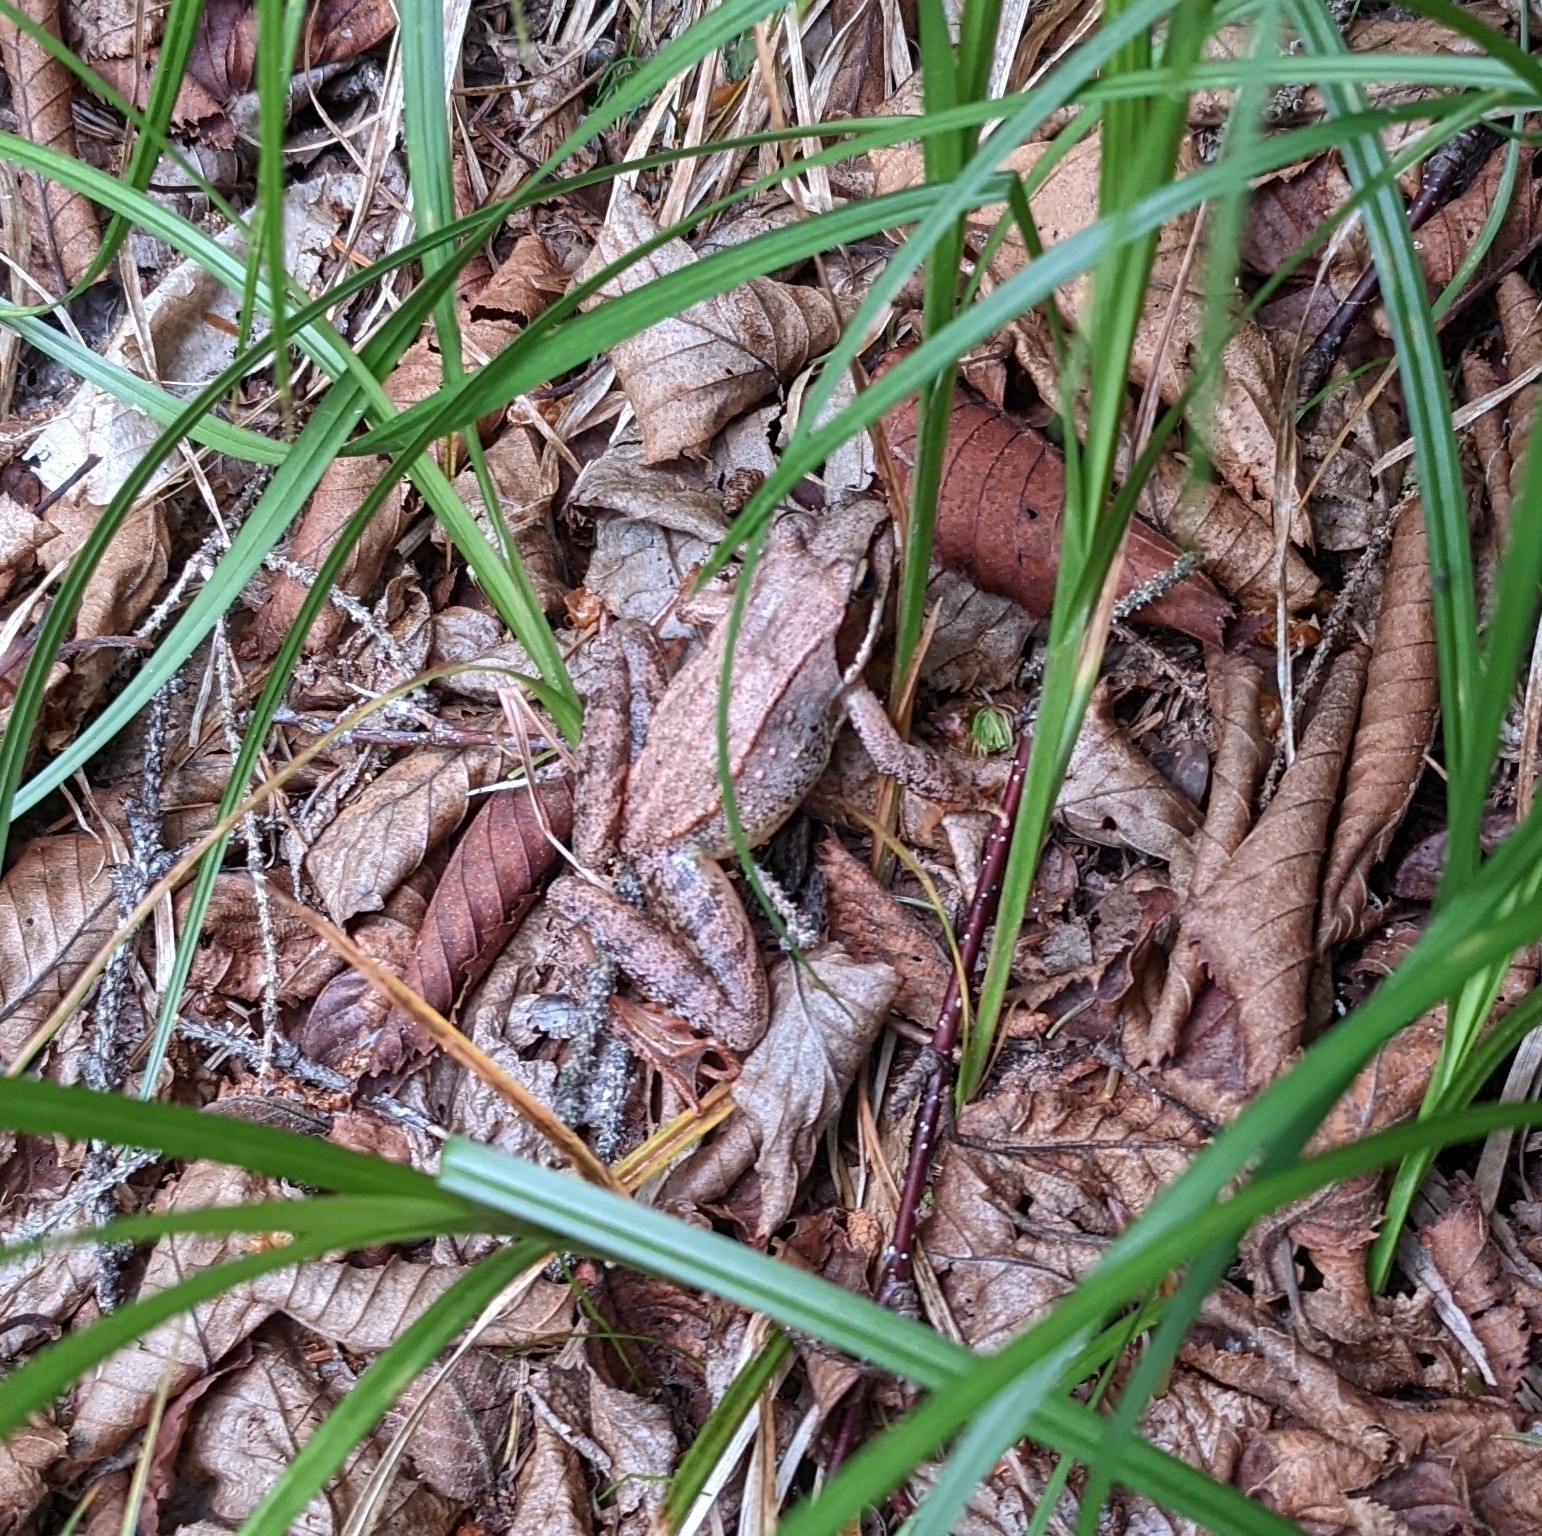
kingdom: Animalia
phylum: Chordata
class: Amphibia
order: Anura
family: Ranidae
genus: Lithobates
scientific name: Lithobates sylvaticus
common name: Wood frog
